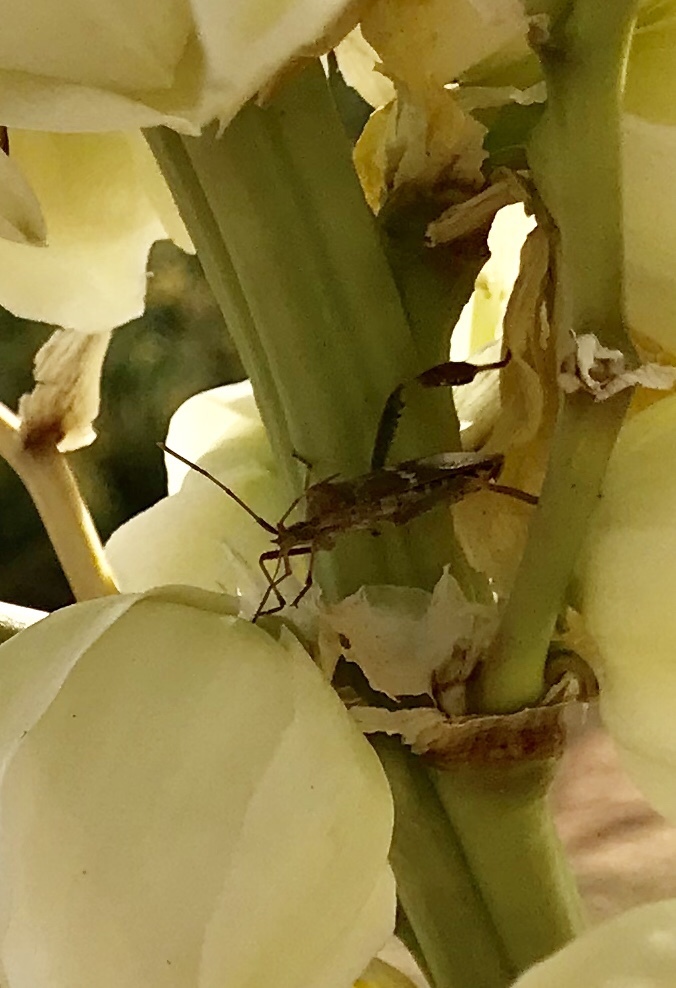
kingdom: Animalia
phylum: Arthropoda
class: Insecta
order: Hemiptera
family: Coreidae
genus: Leptoglossus
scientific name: Leptoglossus clypealis
